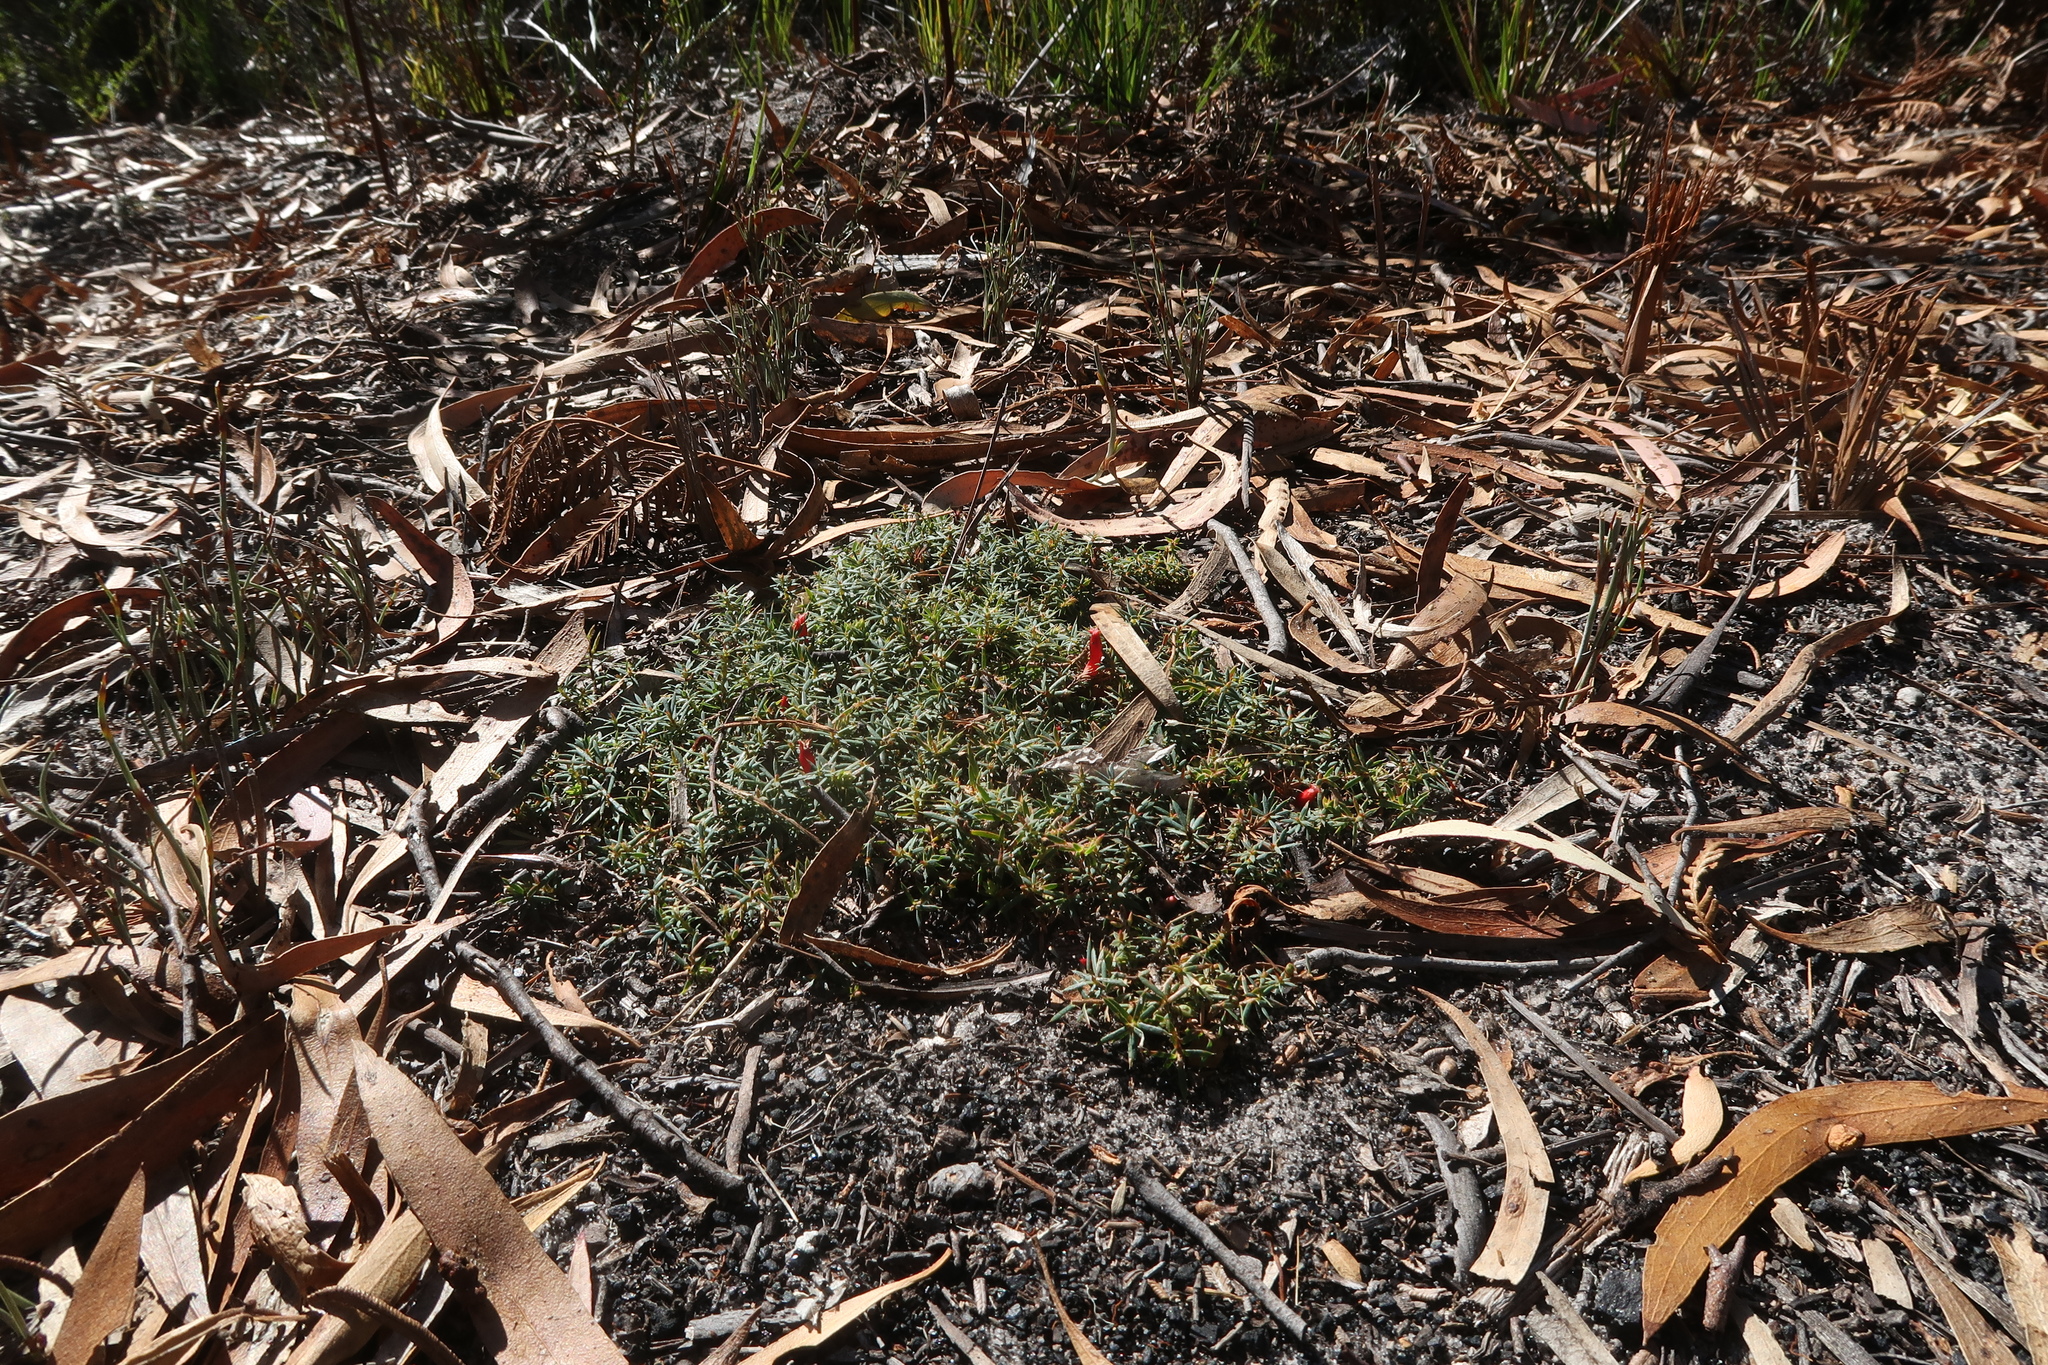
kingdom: Plantae
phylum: Tracheophyta
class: Magnoliopsida
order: Ericales
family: Ericaceae
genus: Styphelia
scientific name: Styphelia humifusa
